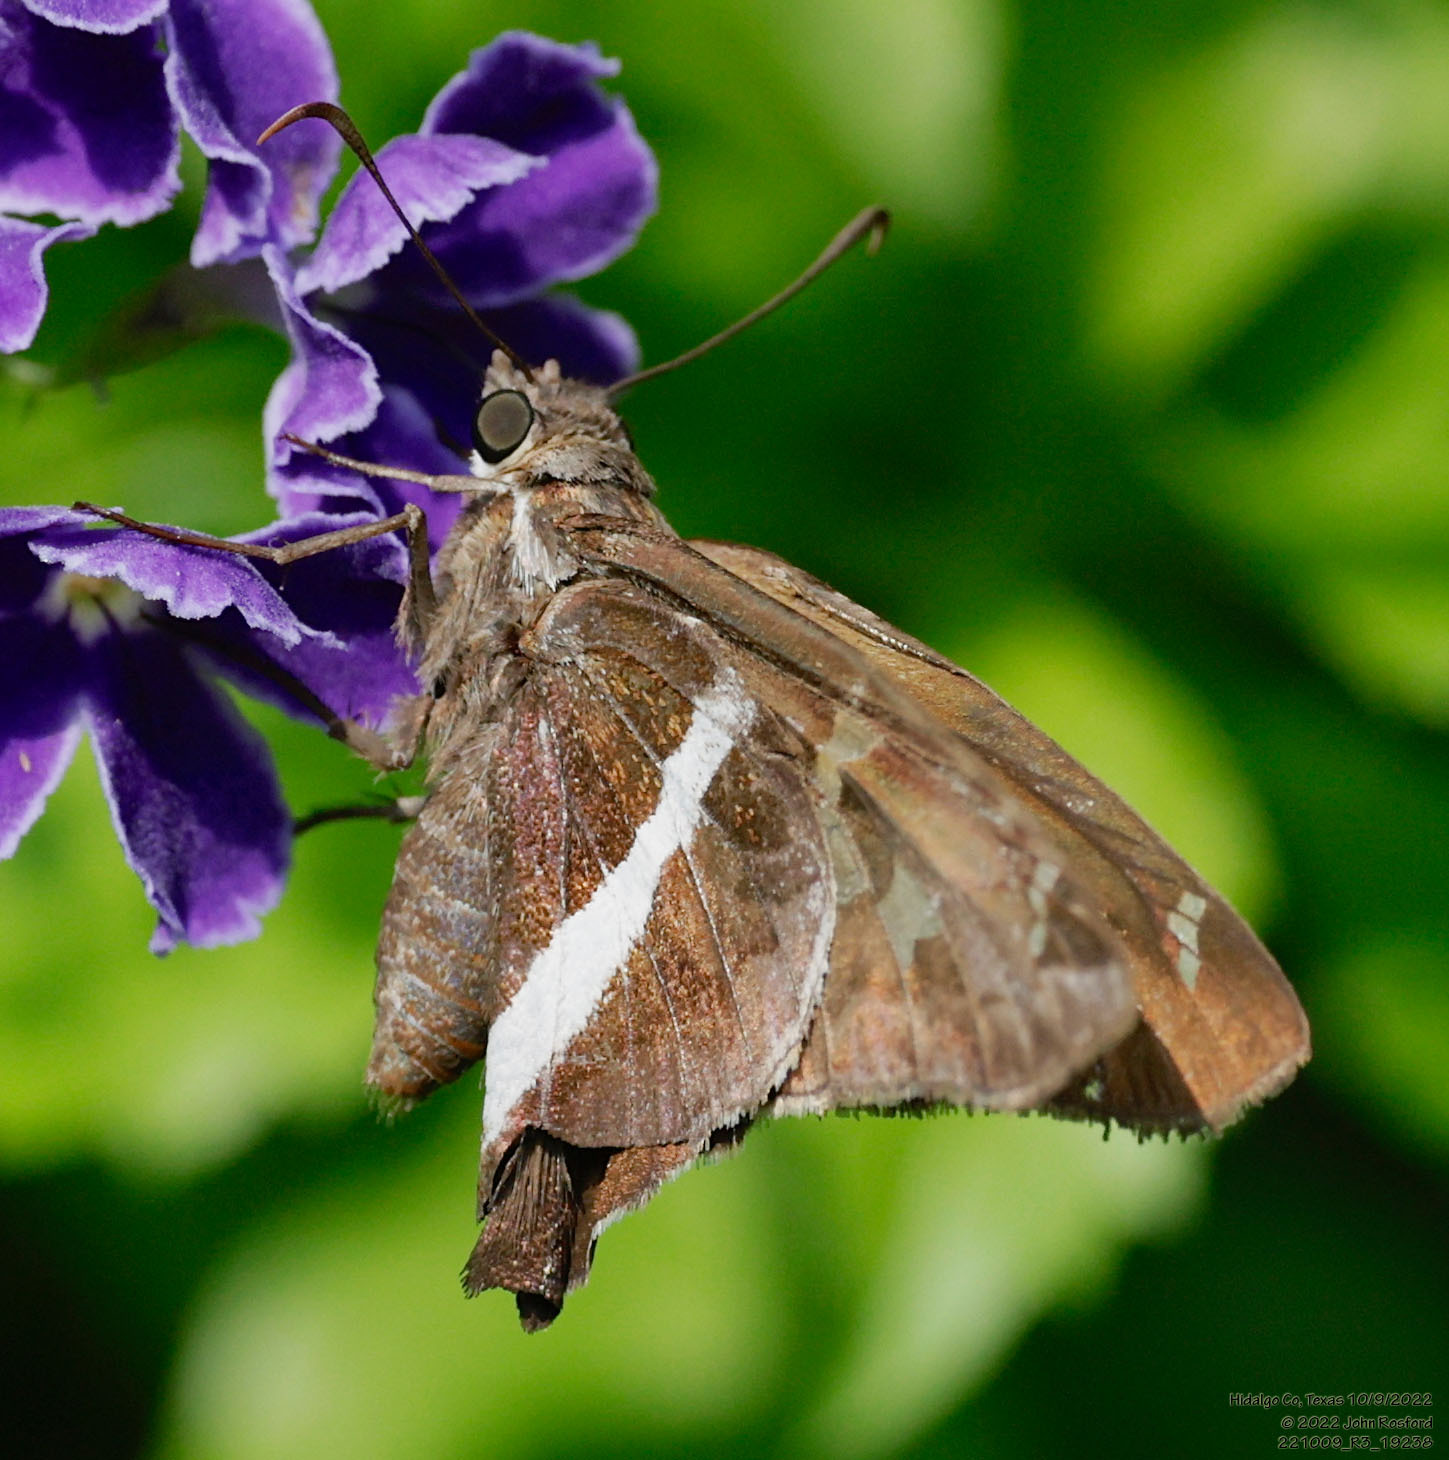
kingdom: Animalia
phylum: Arthropoda
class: Insecta
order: Lepidoptera
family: Hesperiidae
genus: Chioides
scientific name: Chioides catillus
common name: Silverbanded skipper
